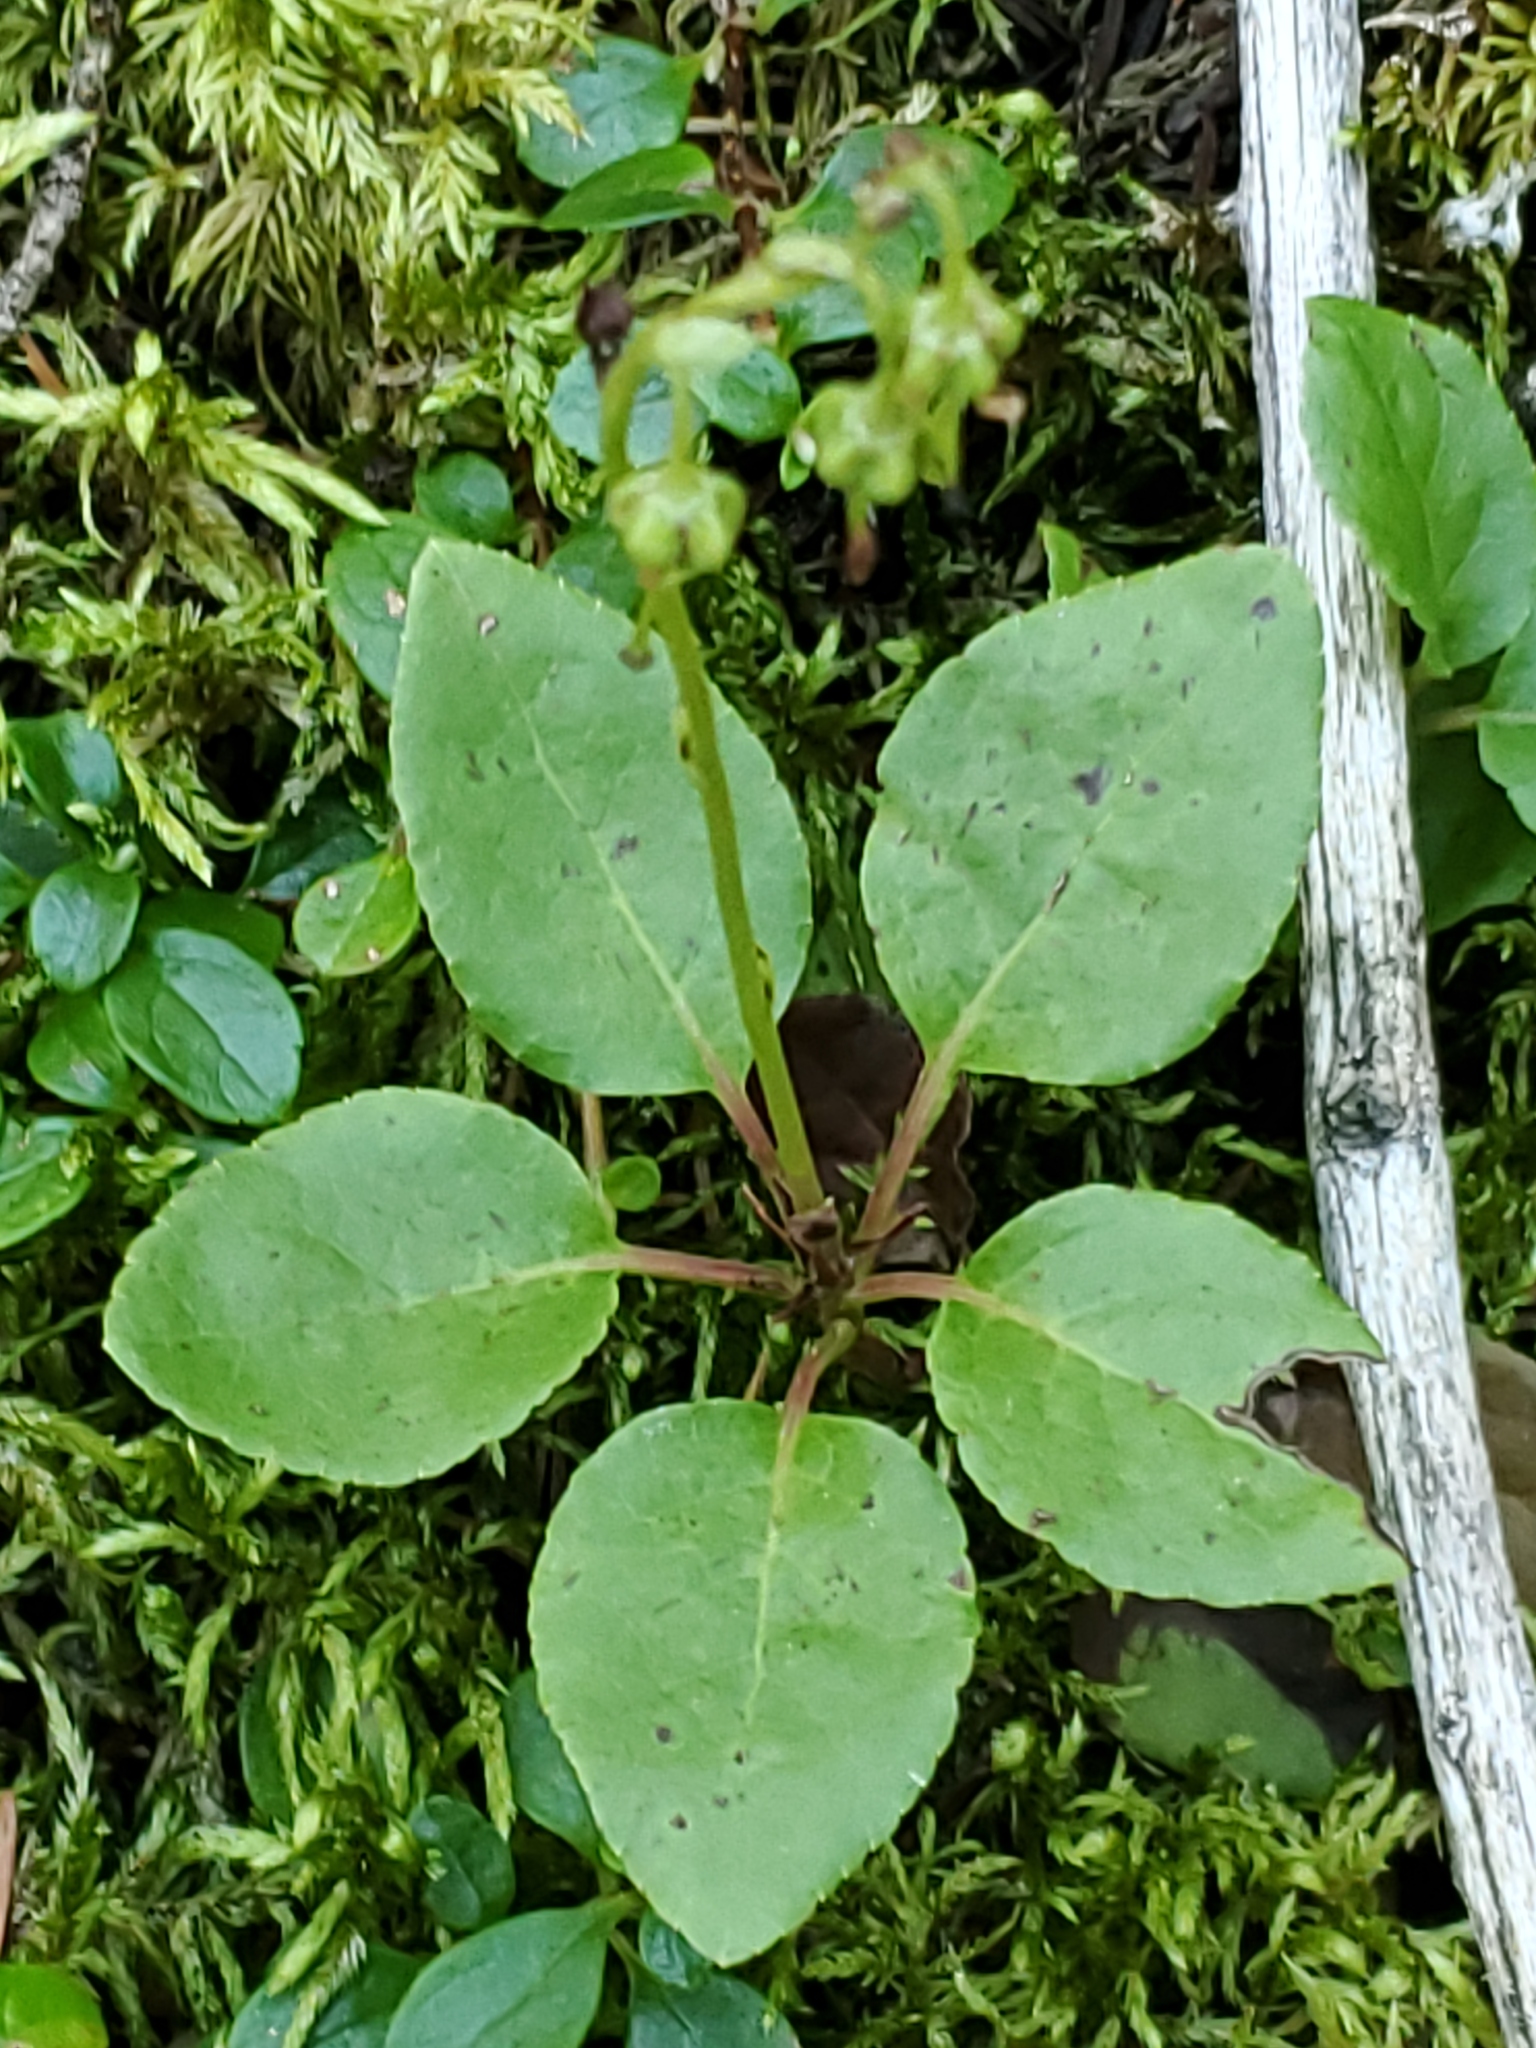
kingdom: Plantae
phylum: Tracheophyta
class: Magnoliopsida
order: Ericales
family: Ericaceae
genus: Orthilia
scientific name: Orthilia secunda
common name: One-sided orthilia
